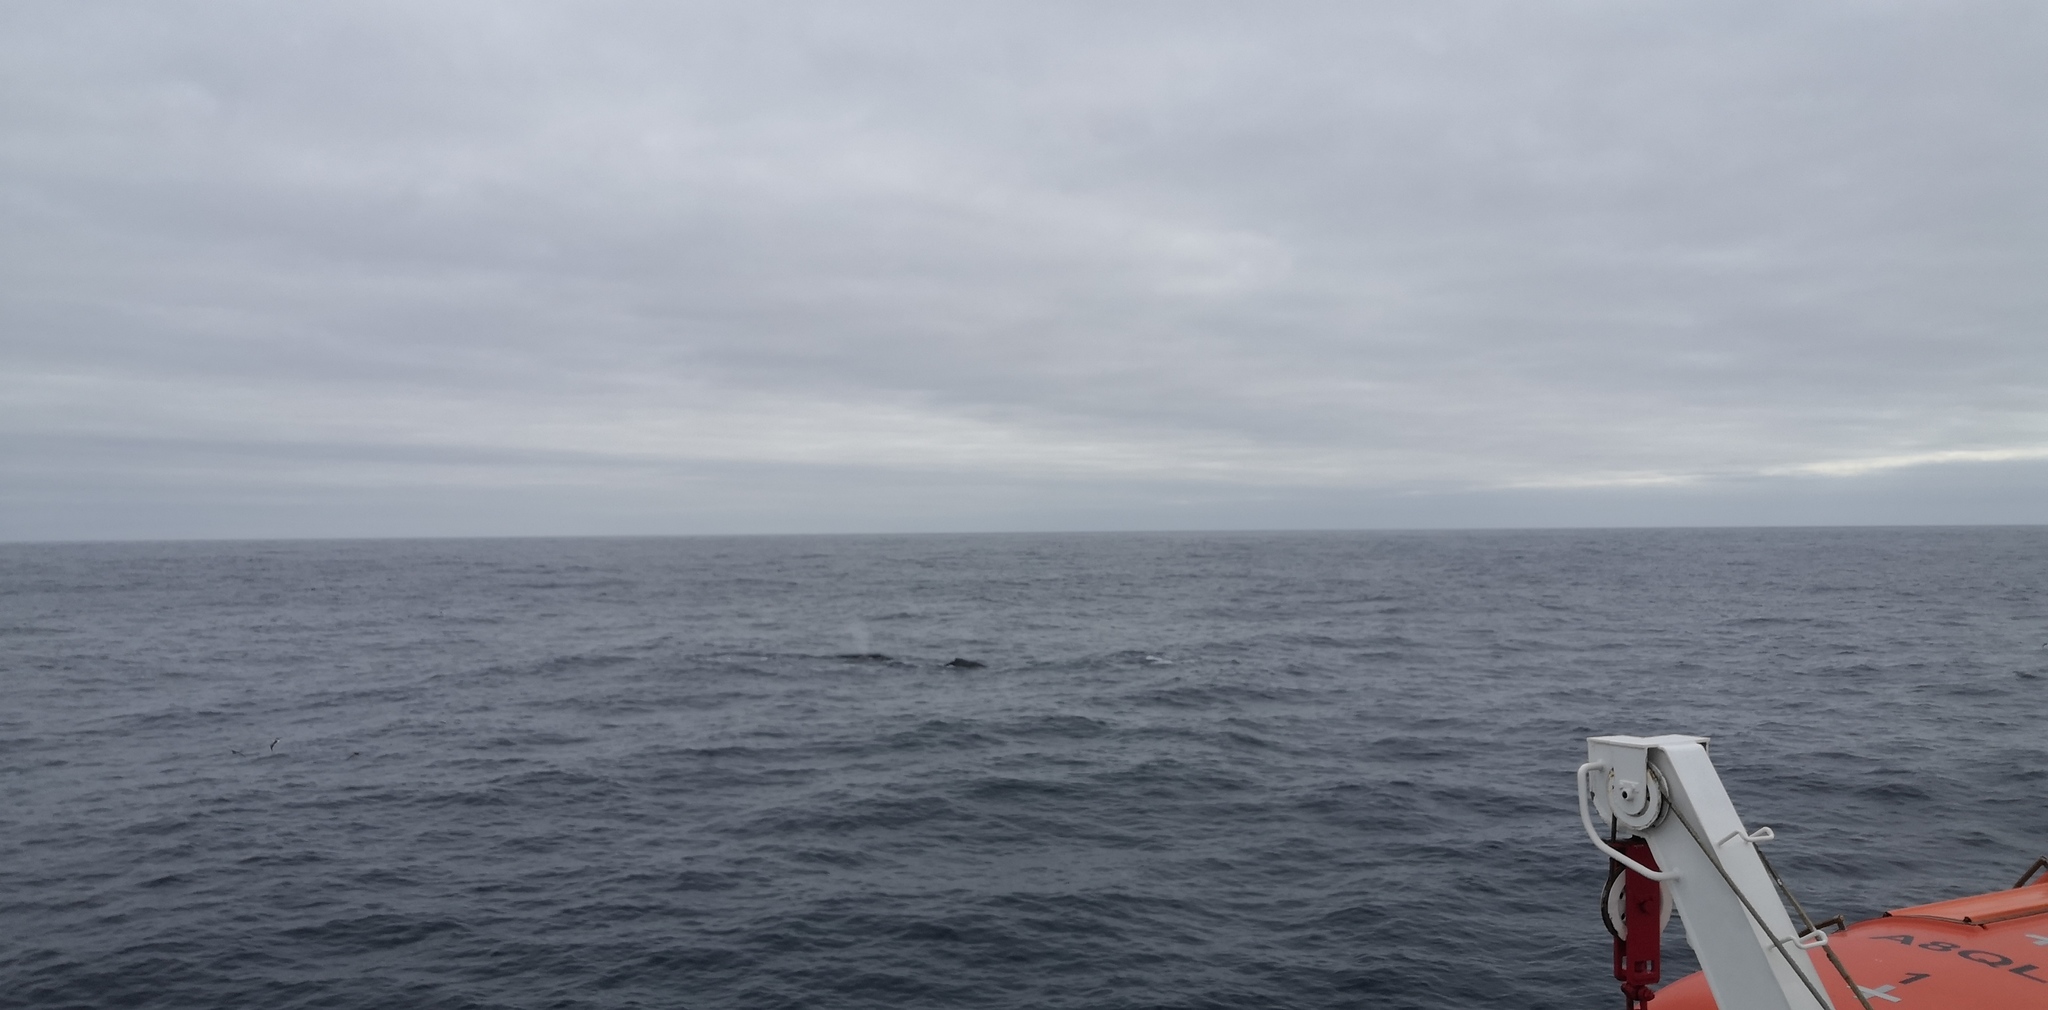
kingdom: Animalia
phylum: Chordata
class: Mammalia
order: Cetacea
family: Balaenopteridae
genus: Megaptera
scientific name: Megaptera novaeangliae
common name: Humpback whale
